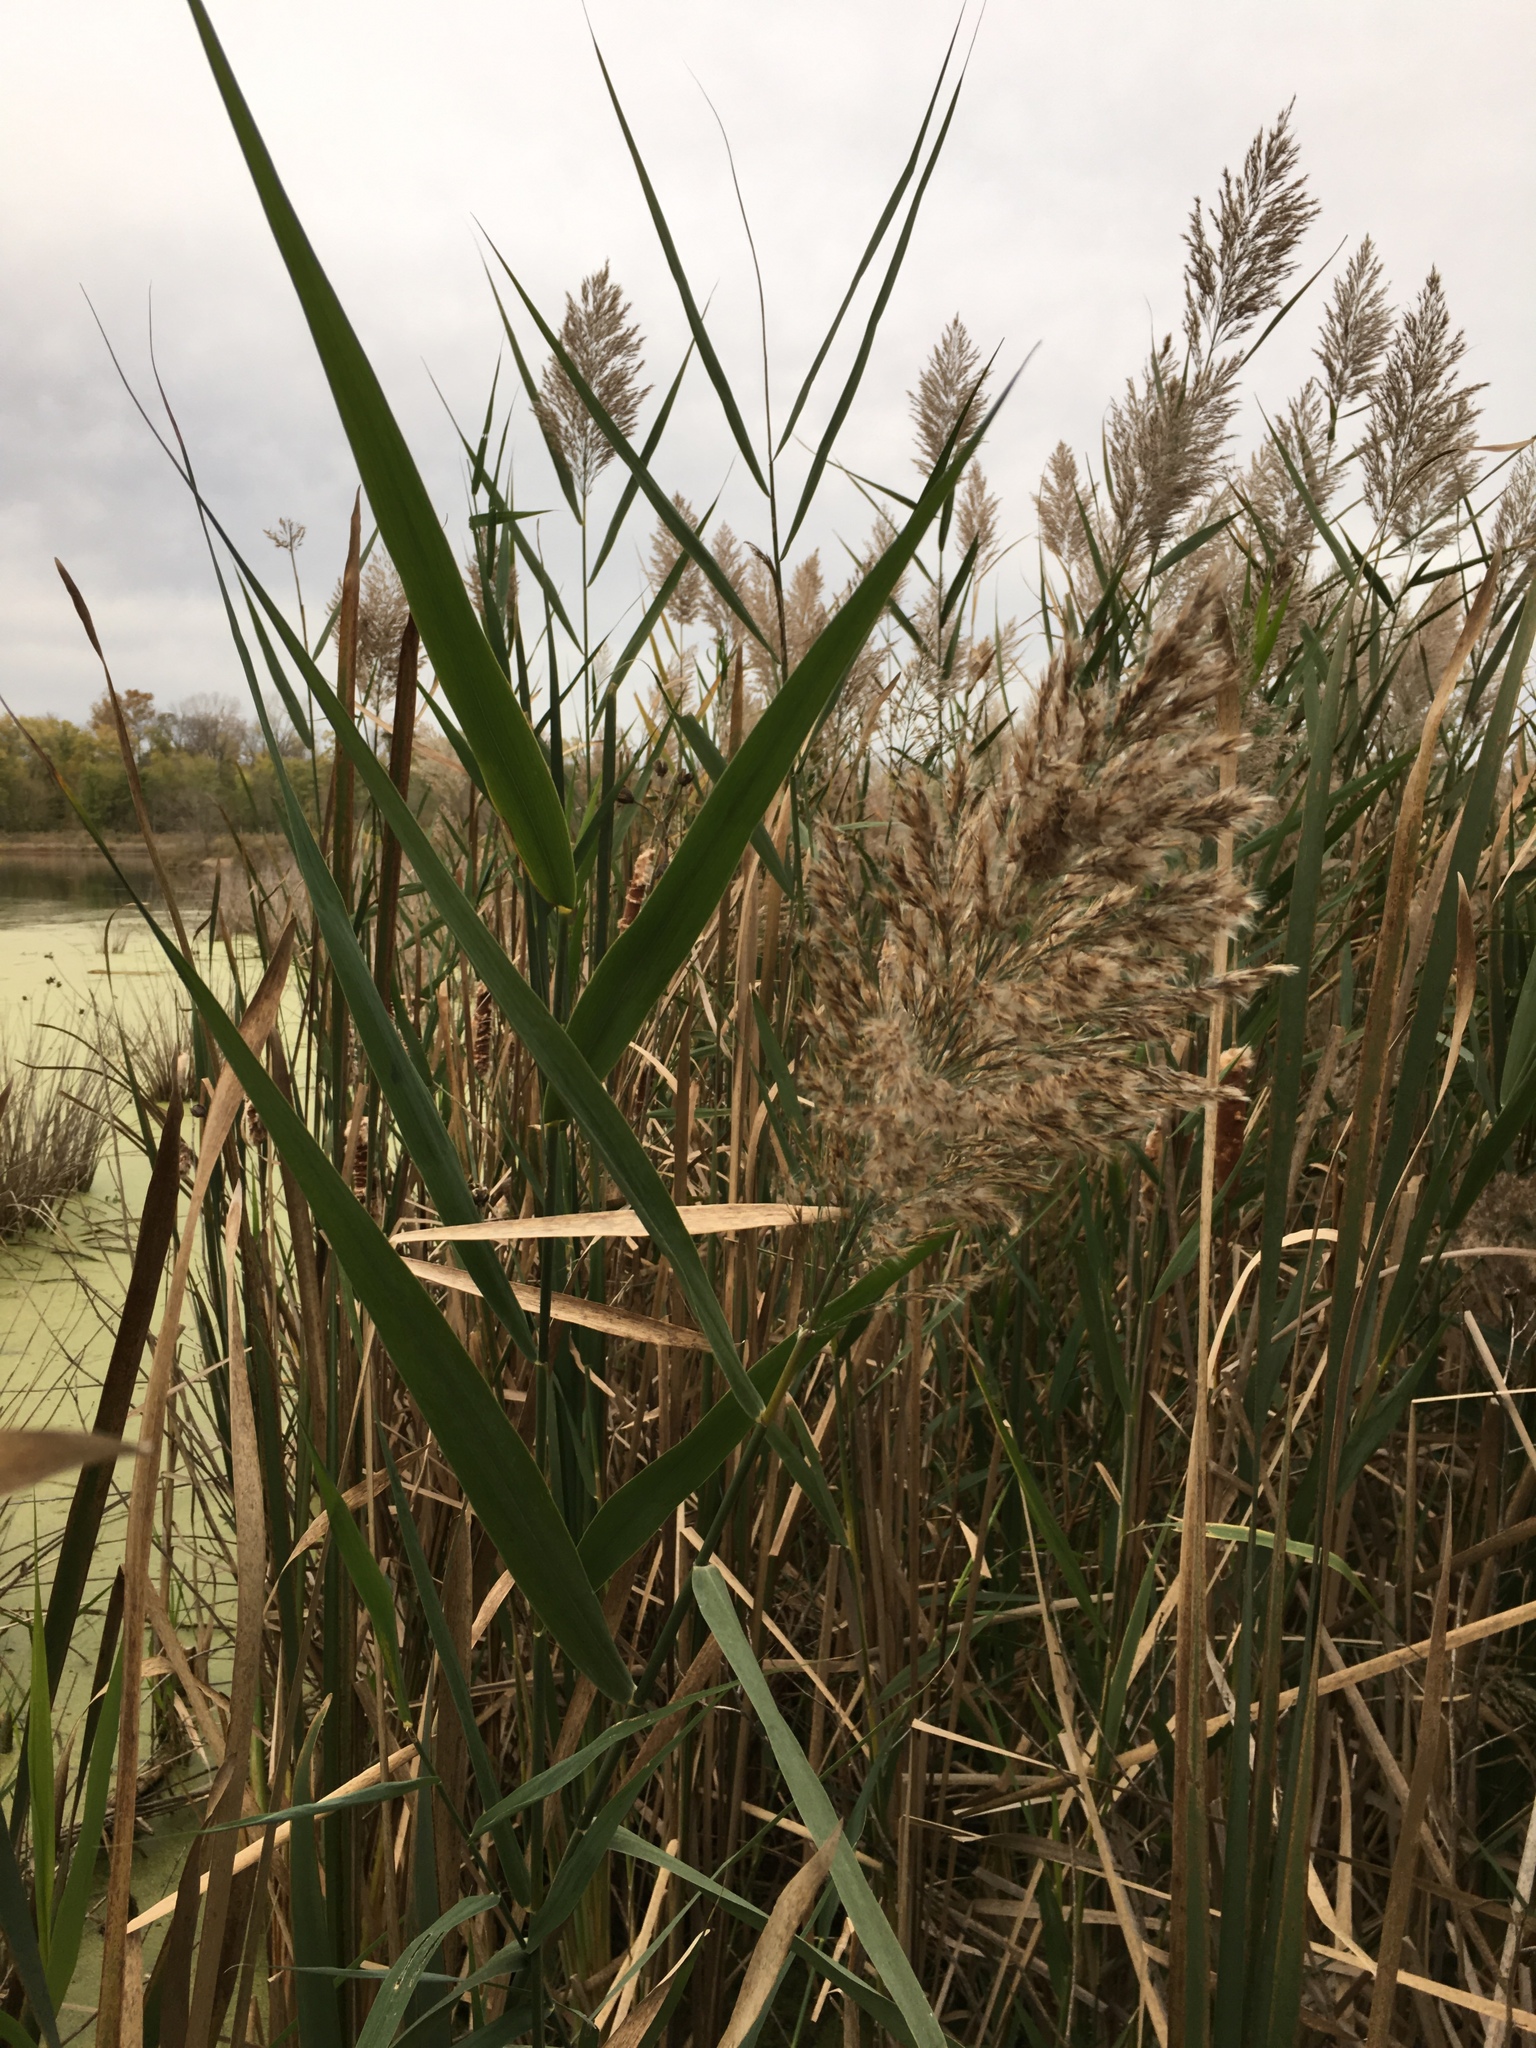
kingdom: Plantae
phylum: Tracheophyta
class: Liliopsida
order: Poales
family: Poaceae
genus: Phragmites
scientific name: Phragmites australis
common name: Common reed
